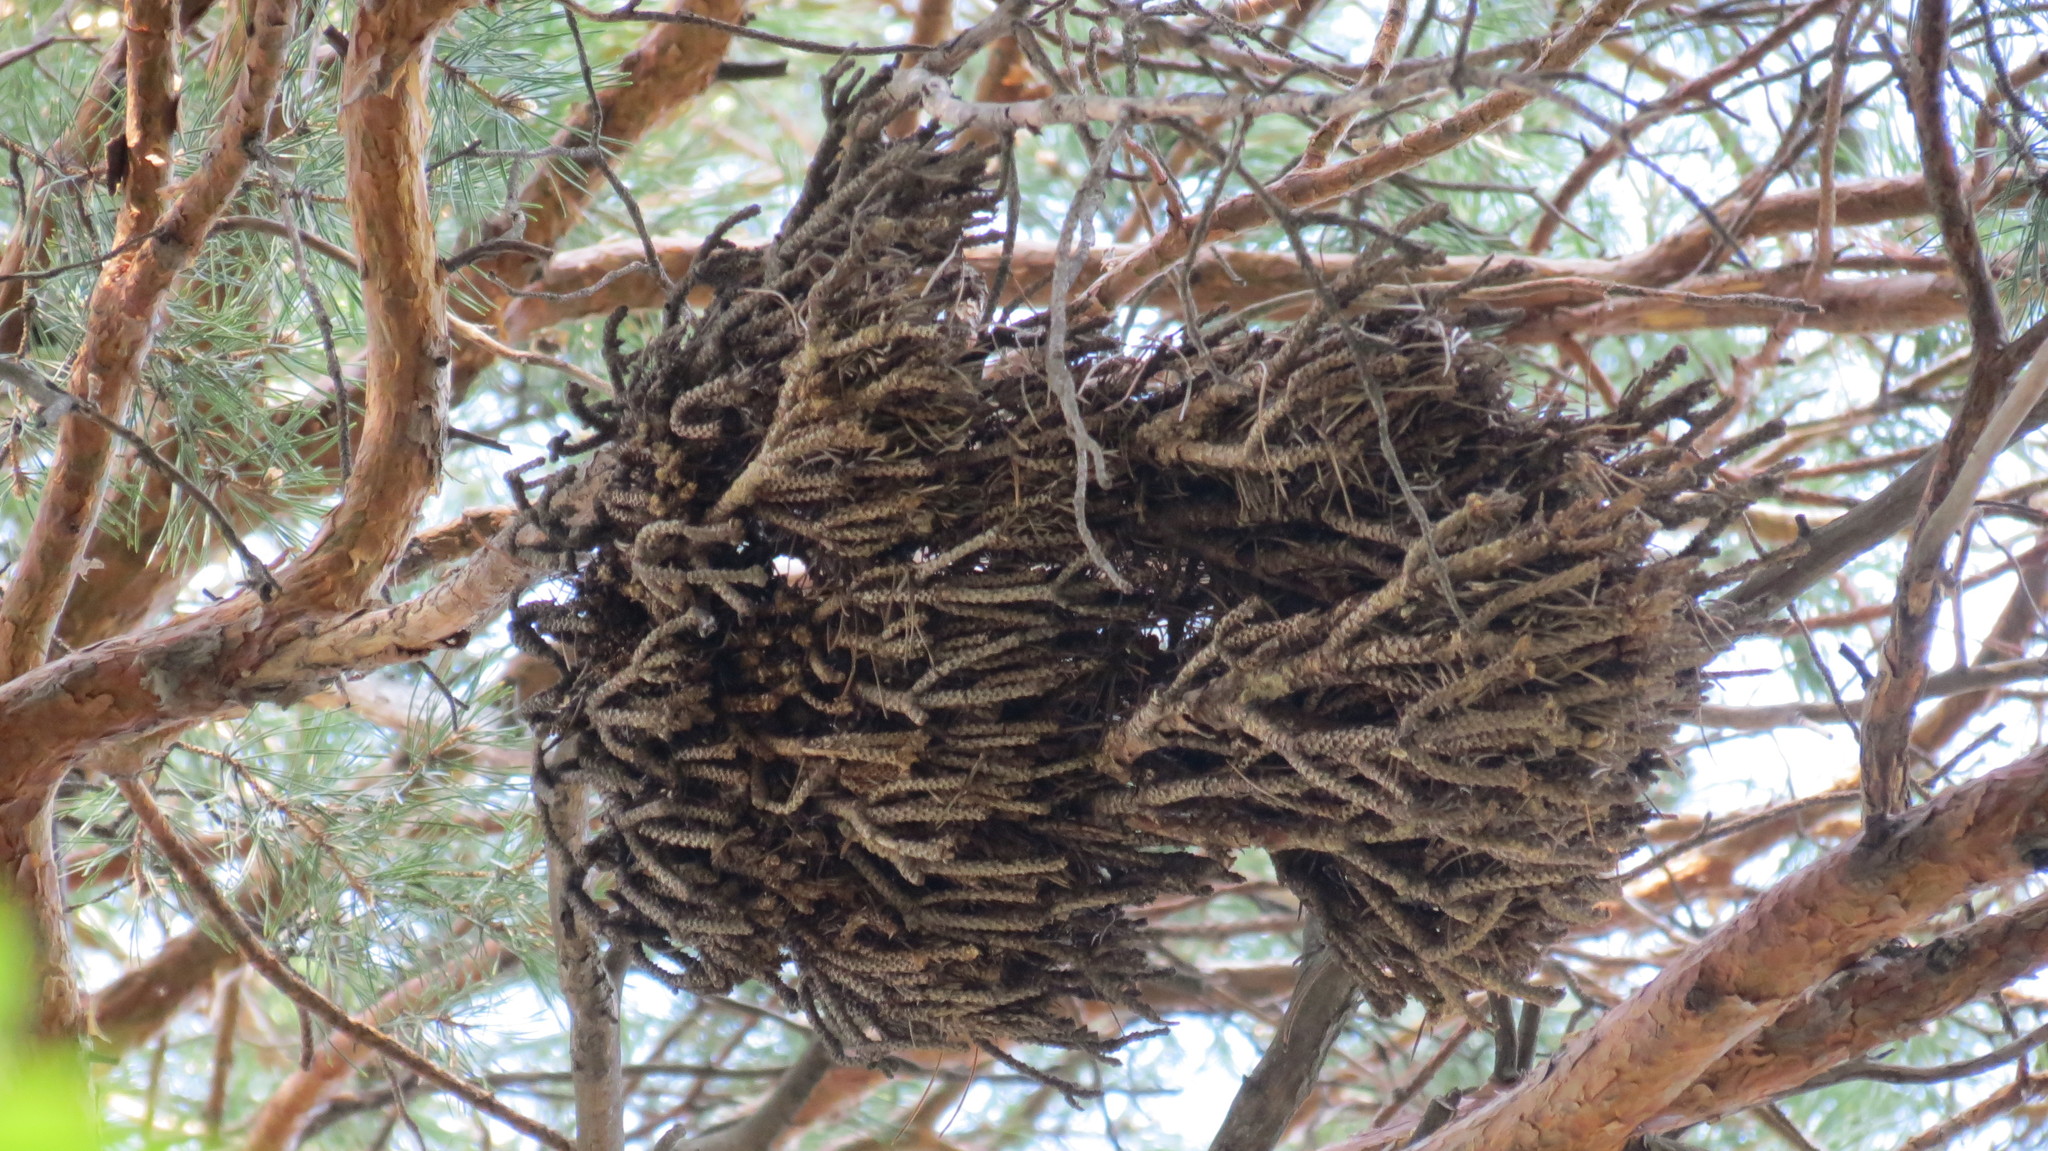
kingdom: Plantae
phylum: Tracheophyta
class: Pinopsida
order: Pinales
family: Pinaceae
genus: Pinus
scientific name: Pinus sylvestris
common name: Scots pine
